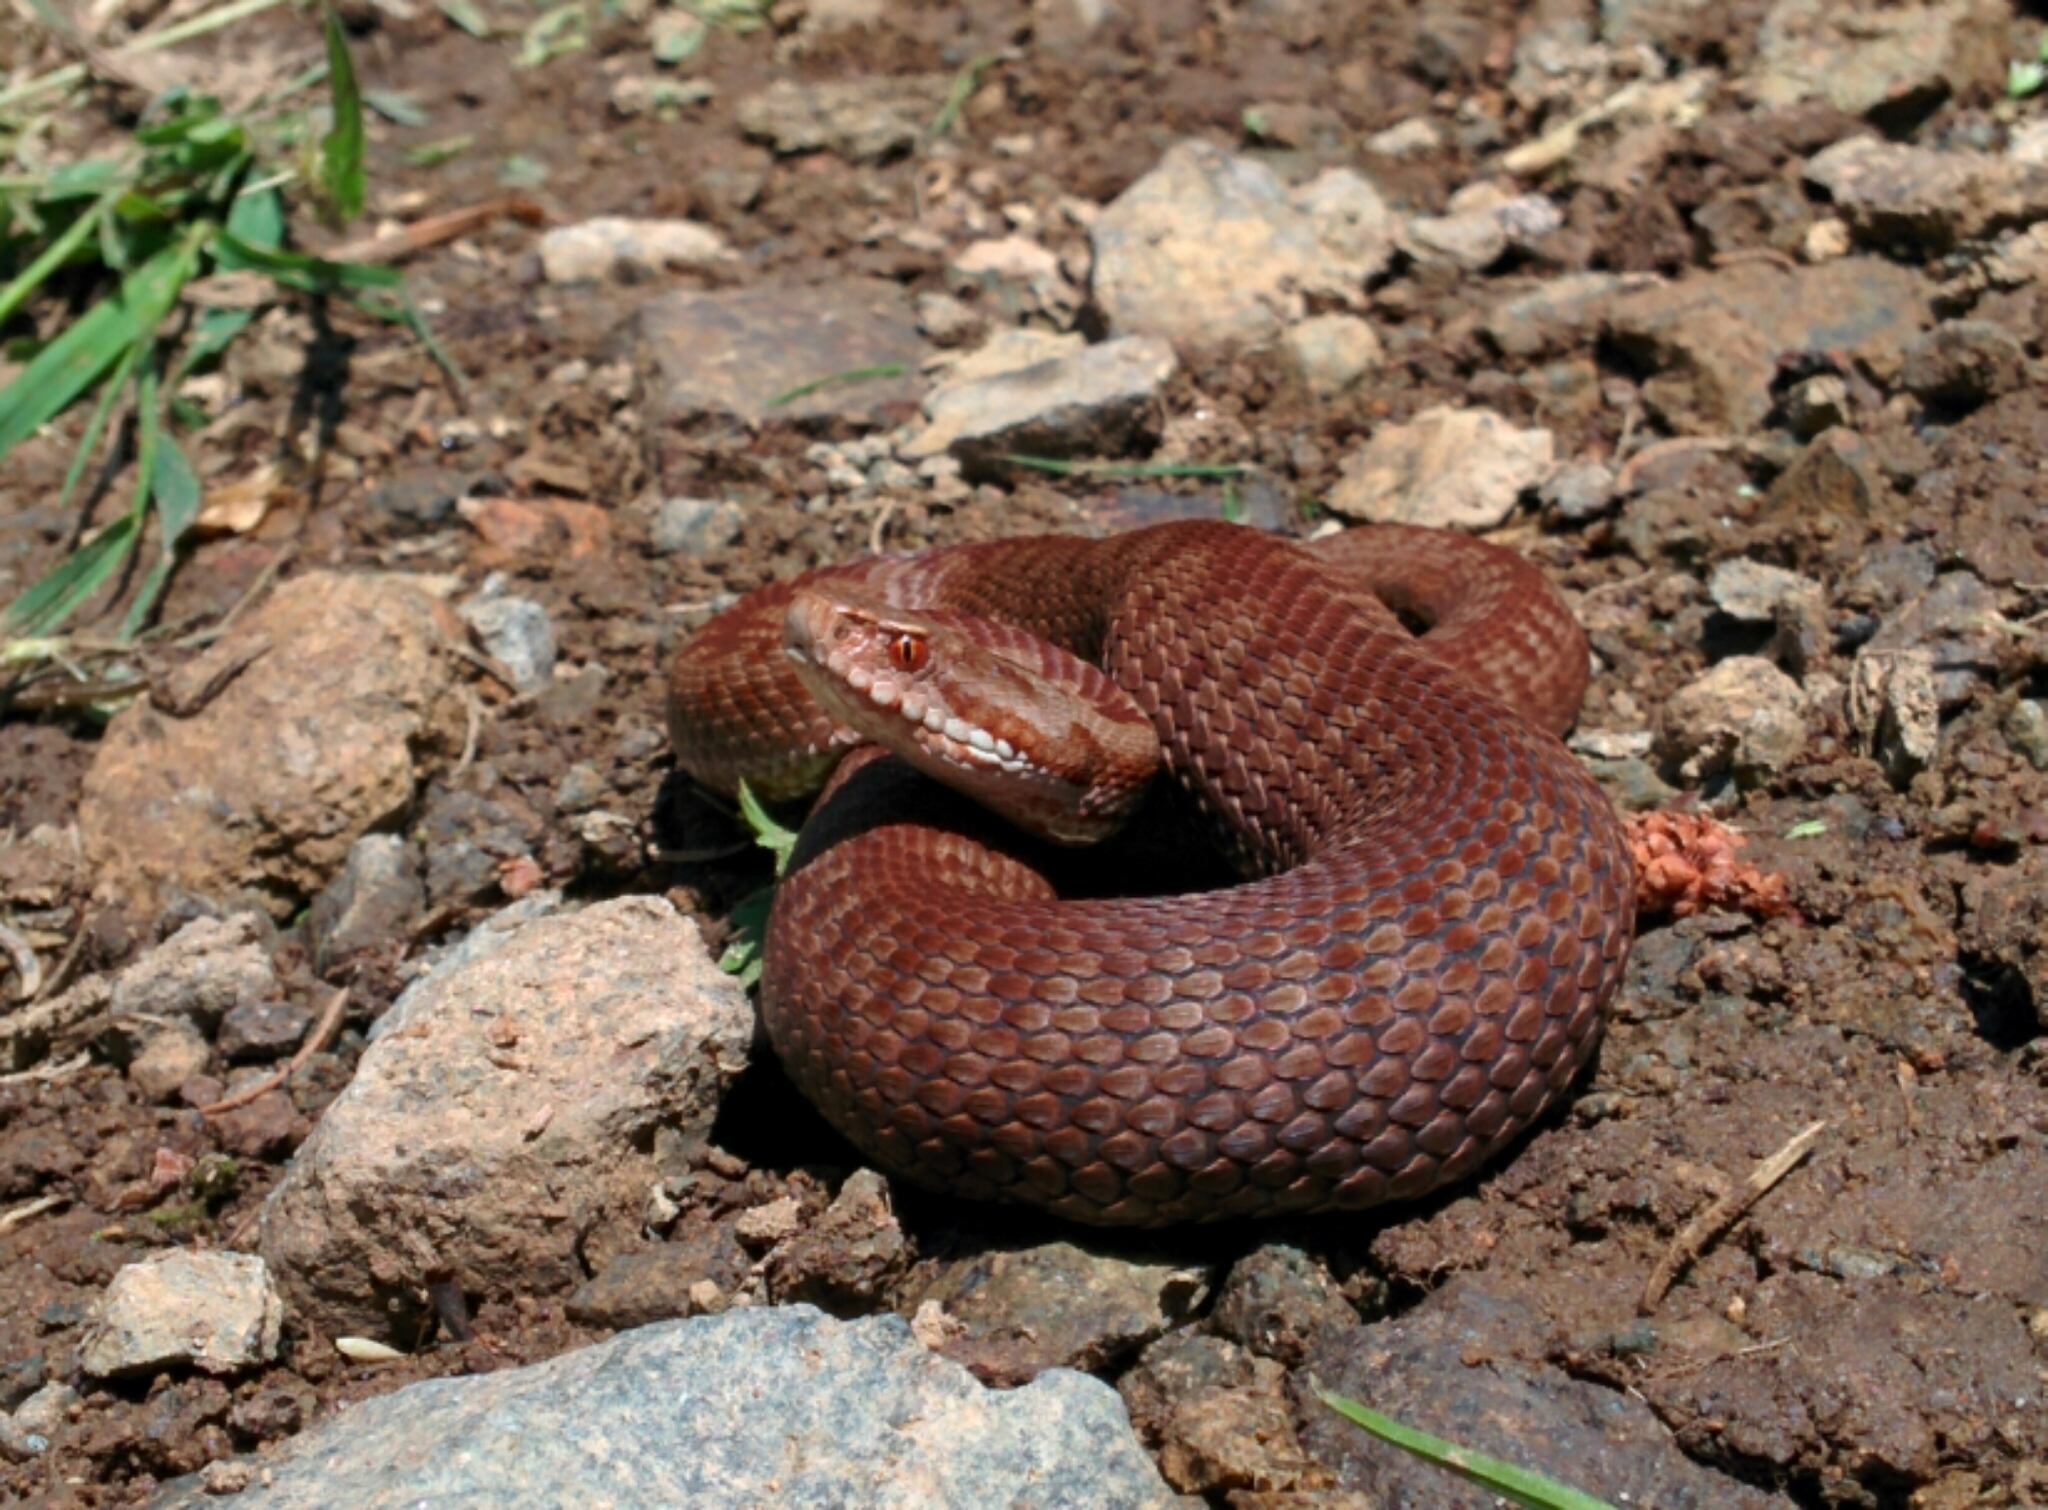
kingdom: Animalia
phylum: Chordata
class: Squamata
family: Viperidae
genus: Vipera
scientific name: Vipera berus
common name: Adder
